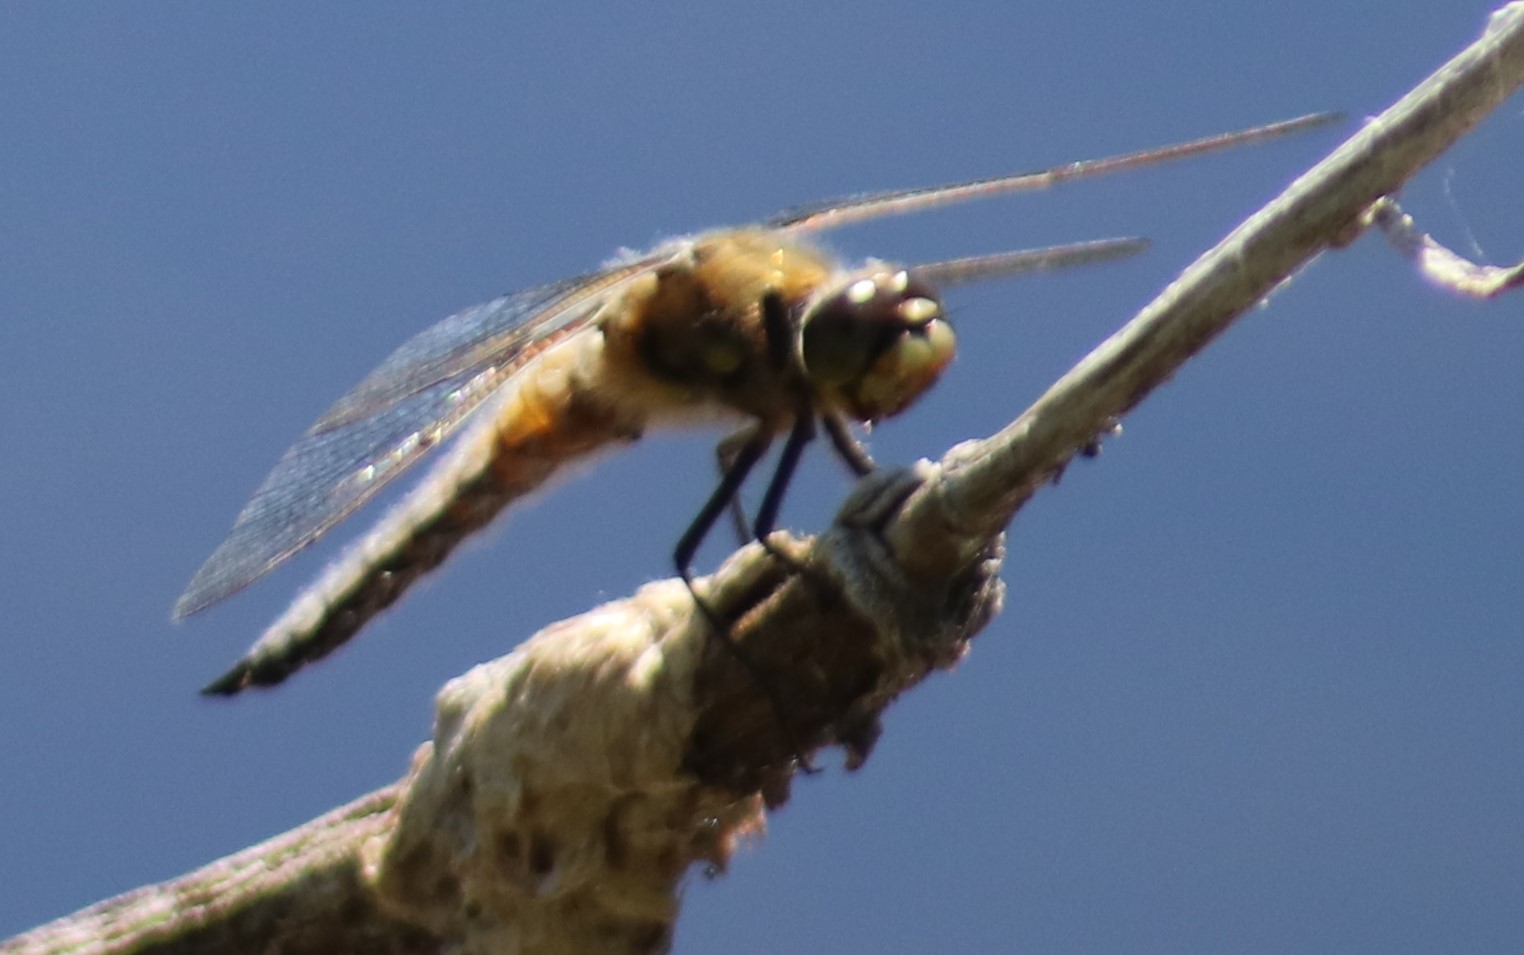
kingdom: Animalia
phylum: Arthropoda
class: Insecta
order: Odonata
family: Libellulidae
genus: Libellula
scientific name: Libellula quadrimaculata
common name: Four-spotted chaser
